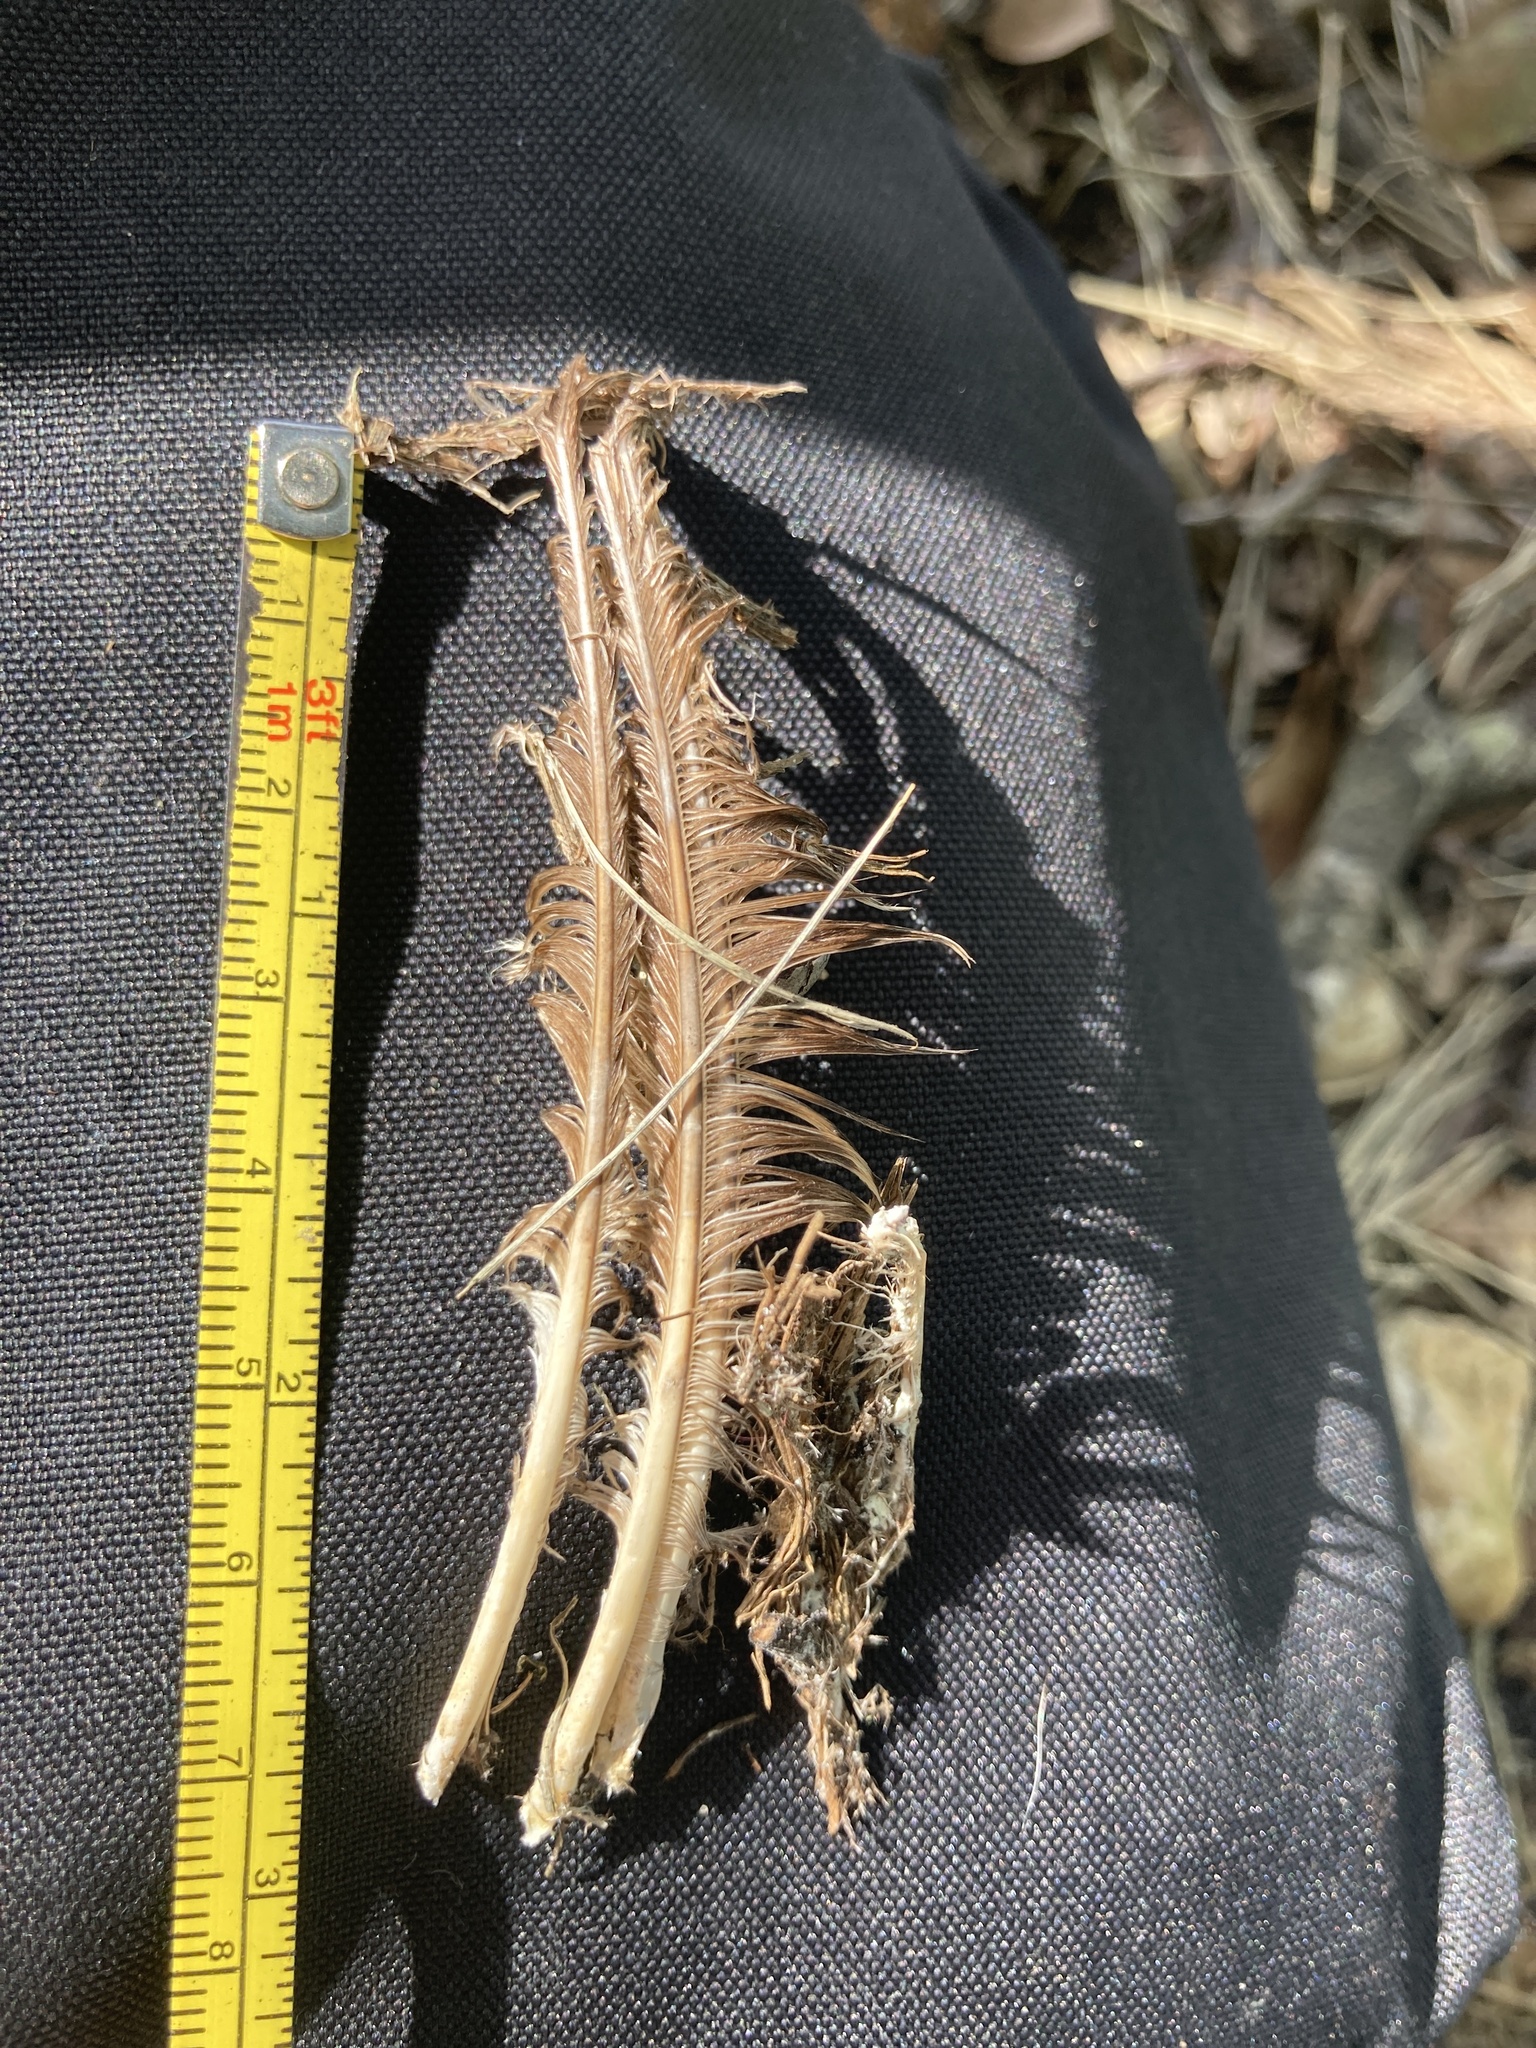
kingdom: Animalia
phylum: Chordata
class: Aves
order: Strigiformes
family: Strigidae
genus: Athene
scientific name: Athene cunicularia
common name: Burrowing owl
